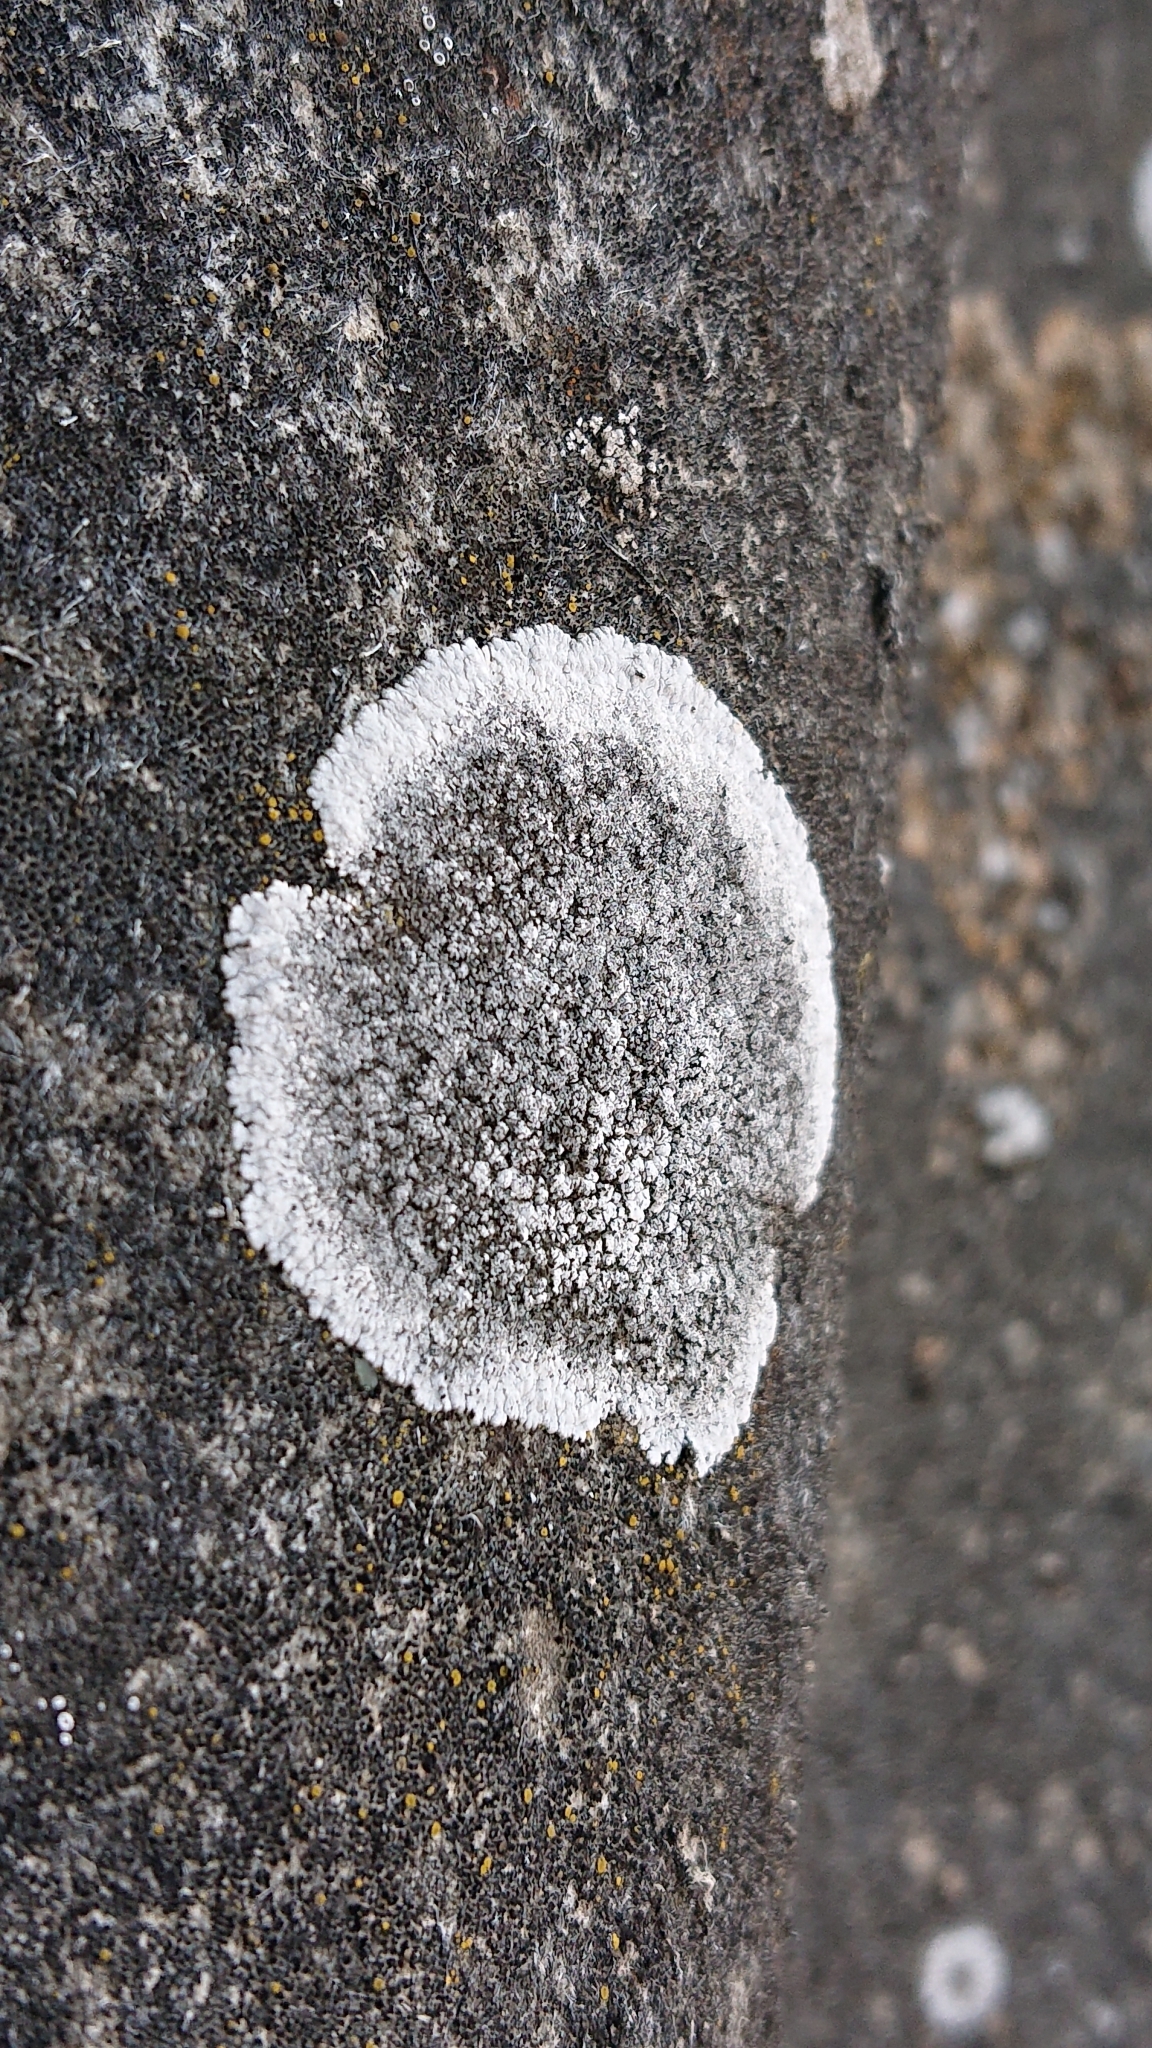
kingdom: Fungi
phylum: Ascomycota
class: Lecanoromycetes
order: Teloschistales
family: Teloschistaceae
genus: Kuettlingeria
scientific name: Kuettlingeria teicholyta
